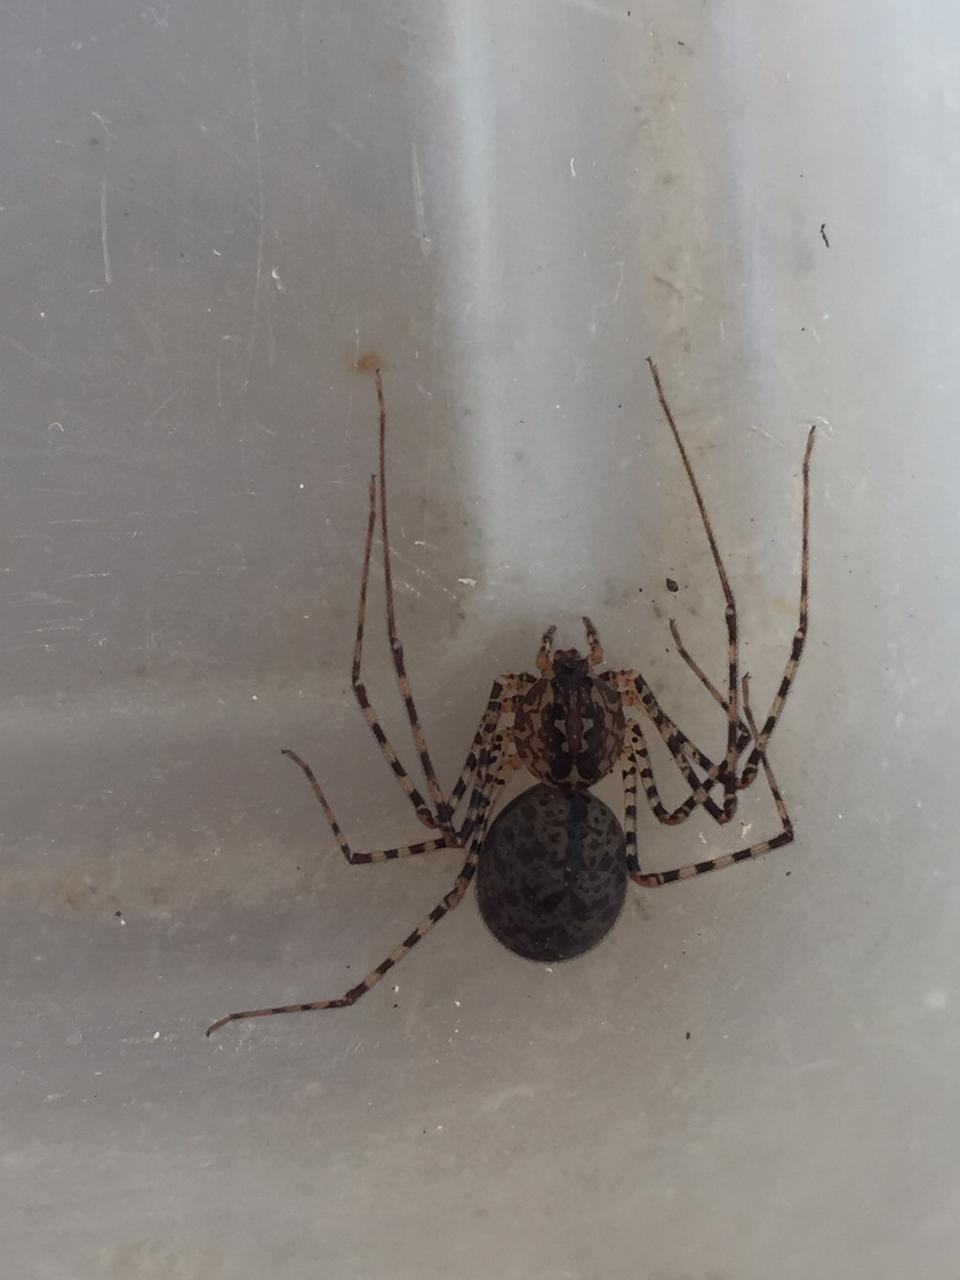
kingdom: Animalia
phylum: Arthropoda
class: Arachnida
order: Araneae
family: Scytodidae
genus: Scytodes
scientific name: Scytodes globula
